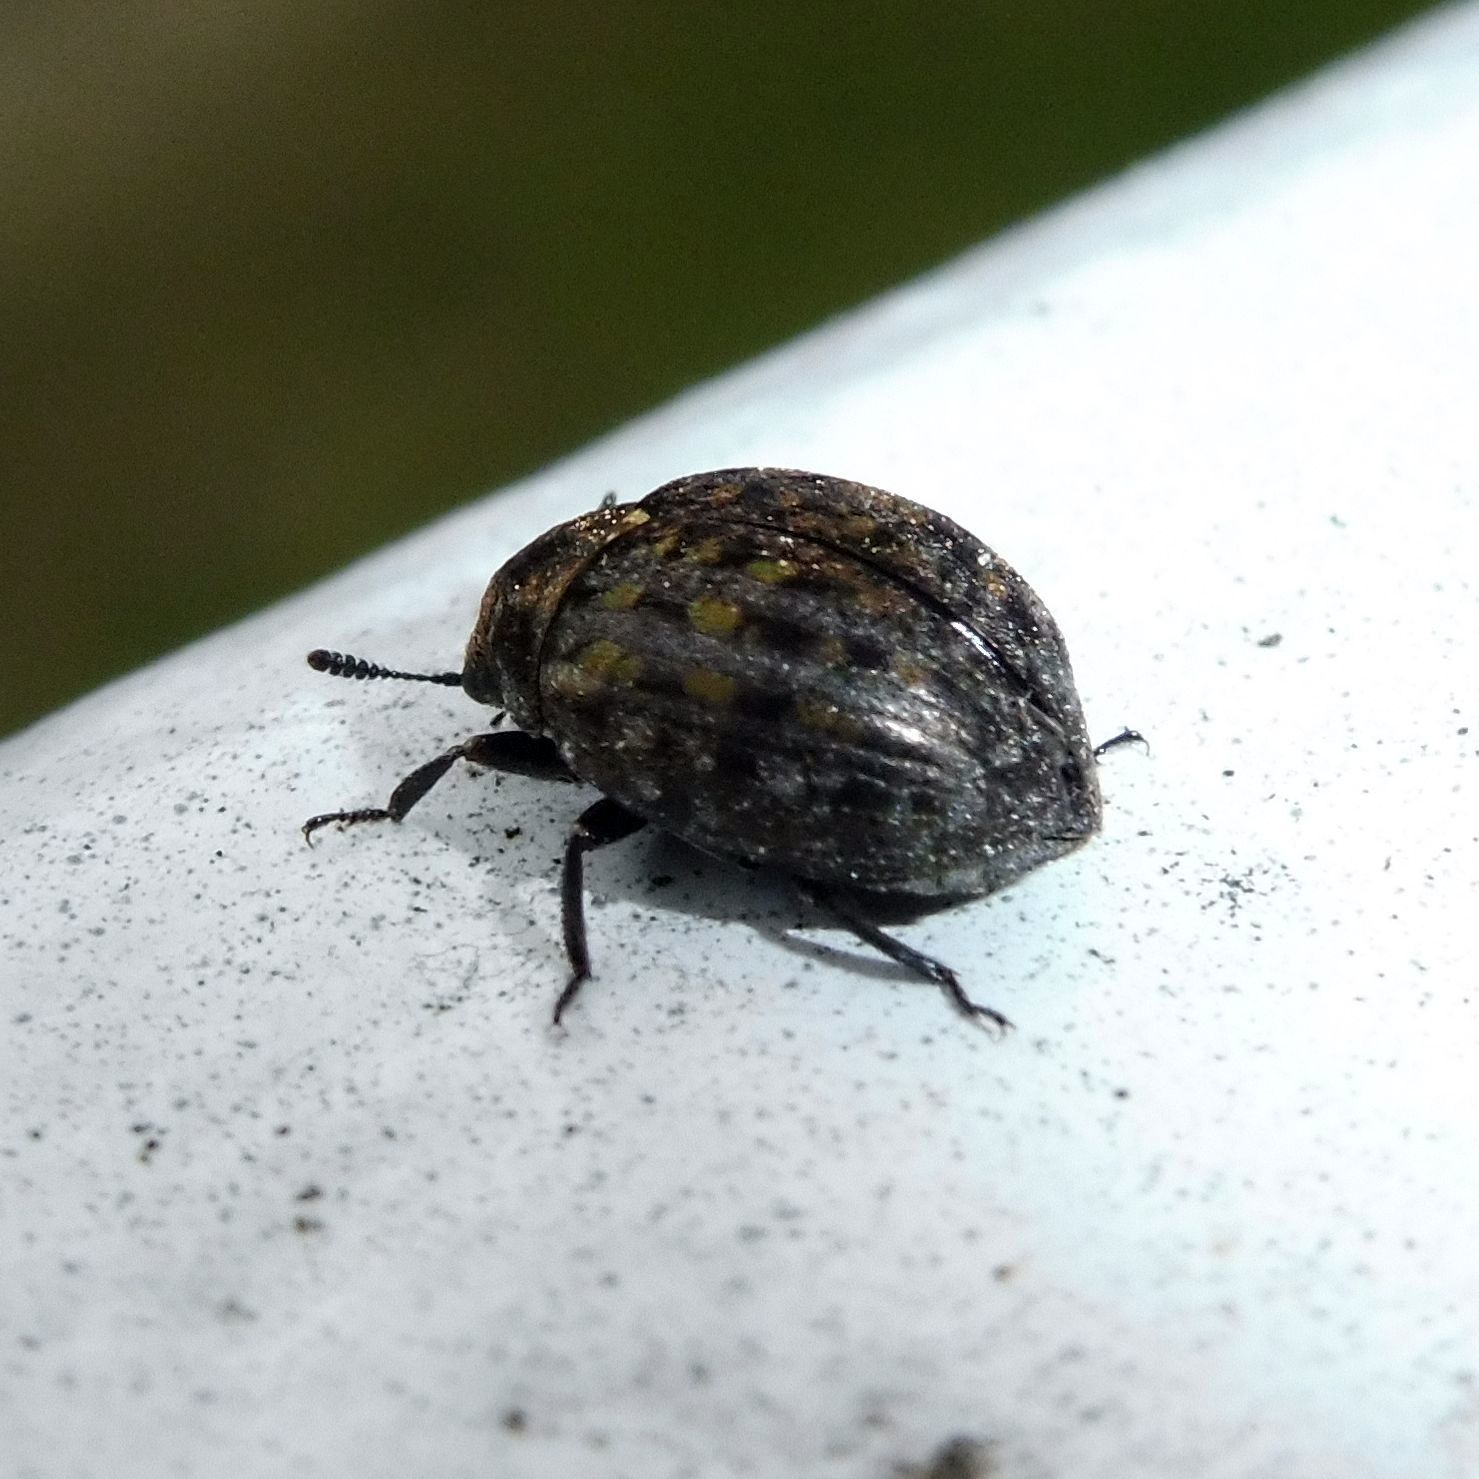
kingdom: Animalia
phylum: Arthropoda
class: Insecta
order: Coleoptera
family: Byrrhidae
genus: Cytilus
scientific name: Cytilus sericeus
